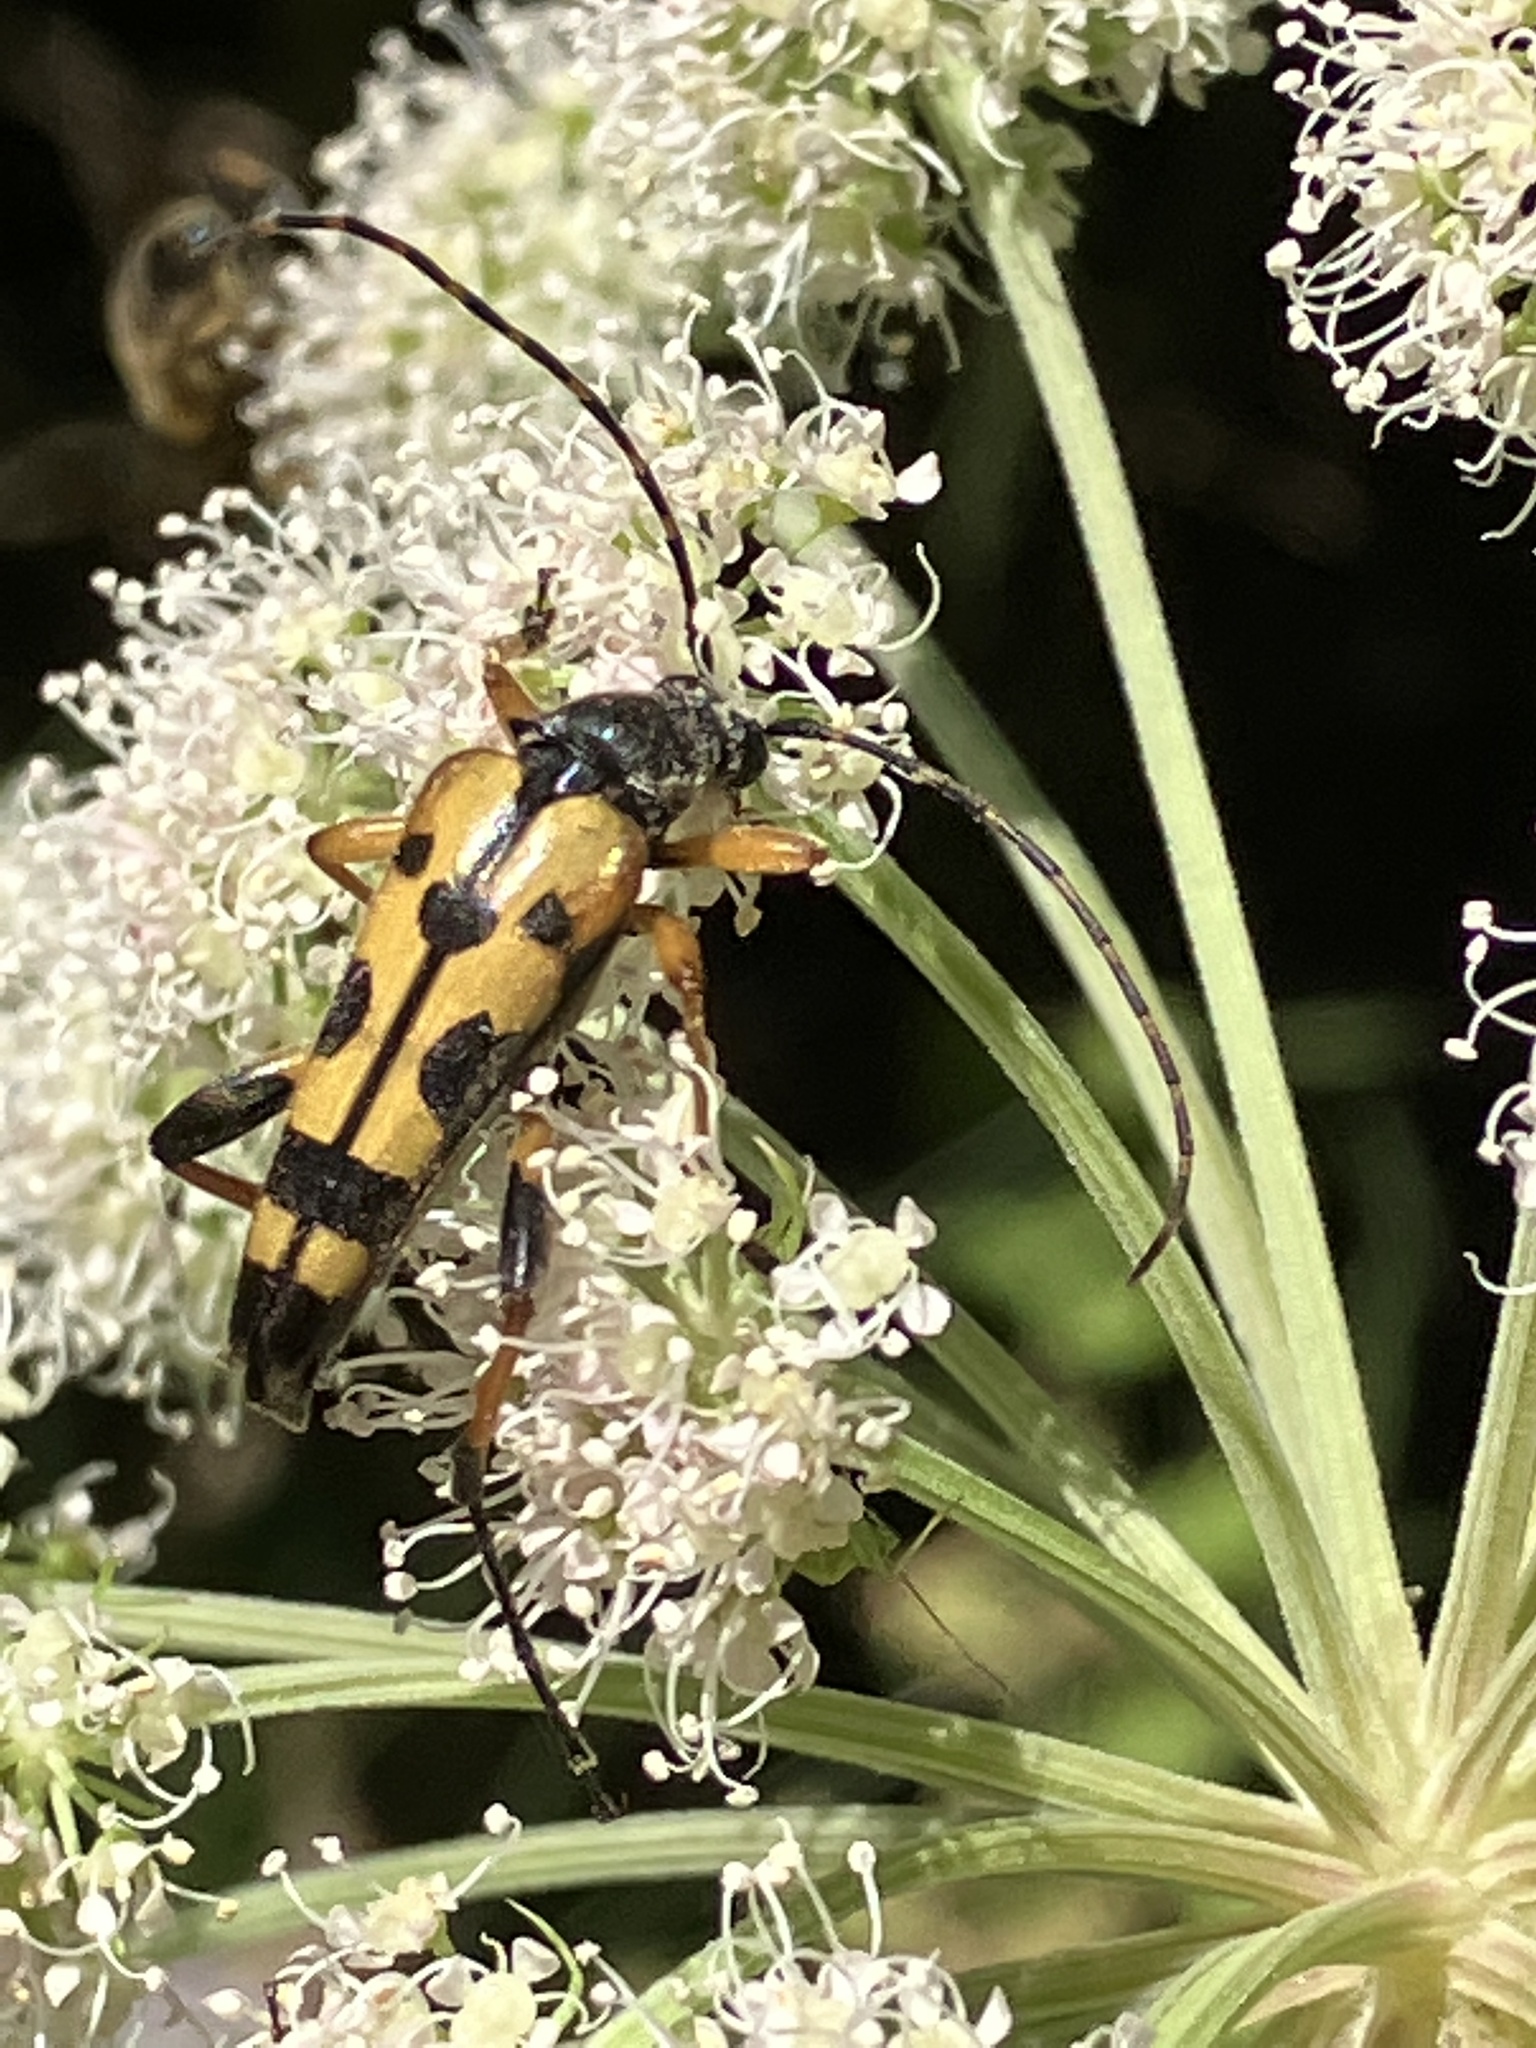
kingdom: Animalia
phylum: Arthropoda
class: Insecta
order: Coleoptera
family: Cerambycidae
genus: Rutpela
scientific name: Rutpela maculata
